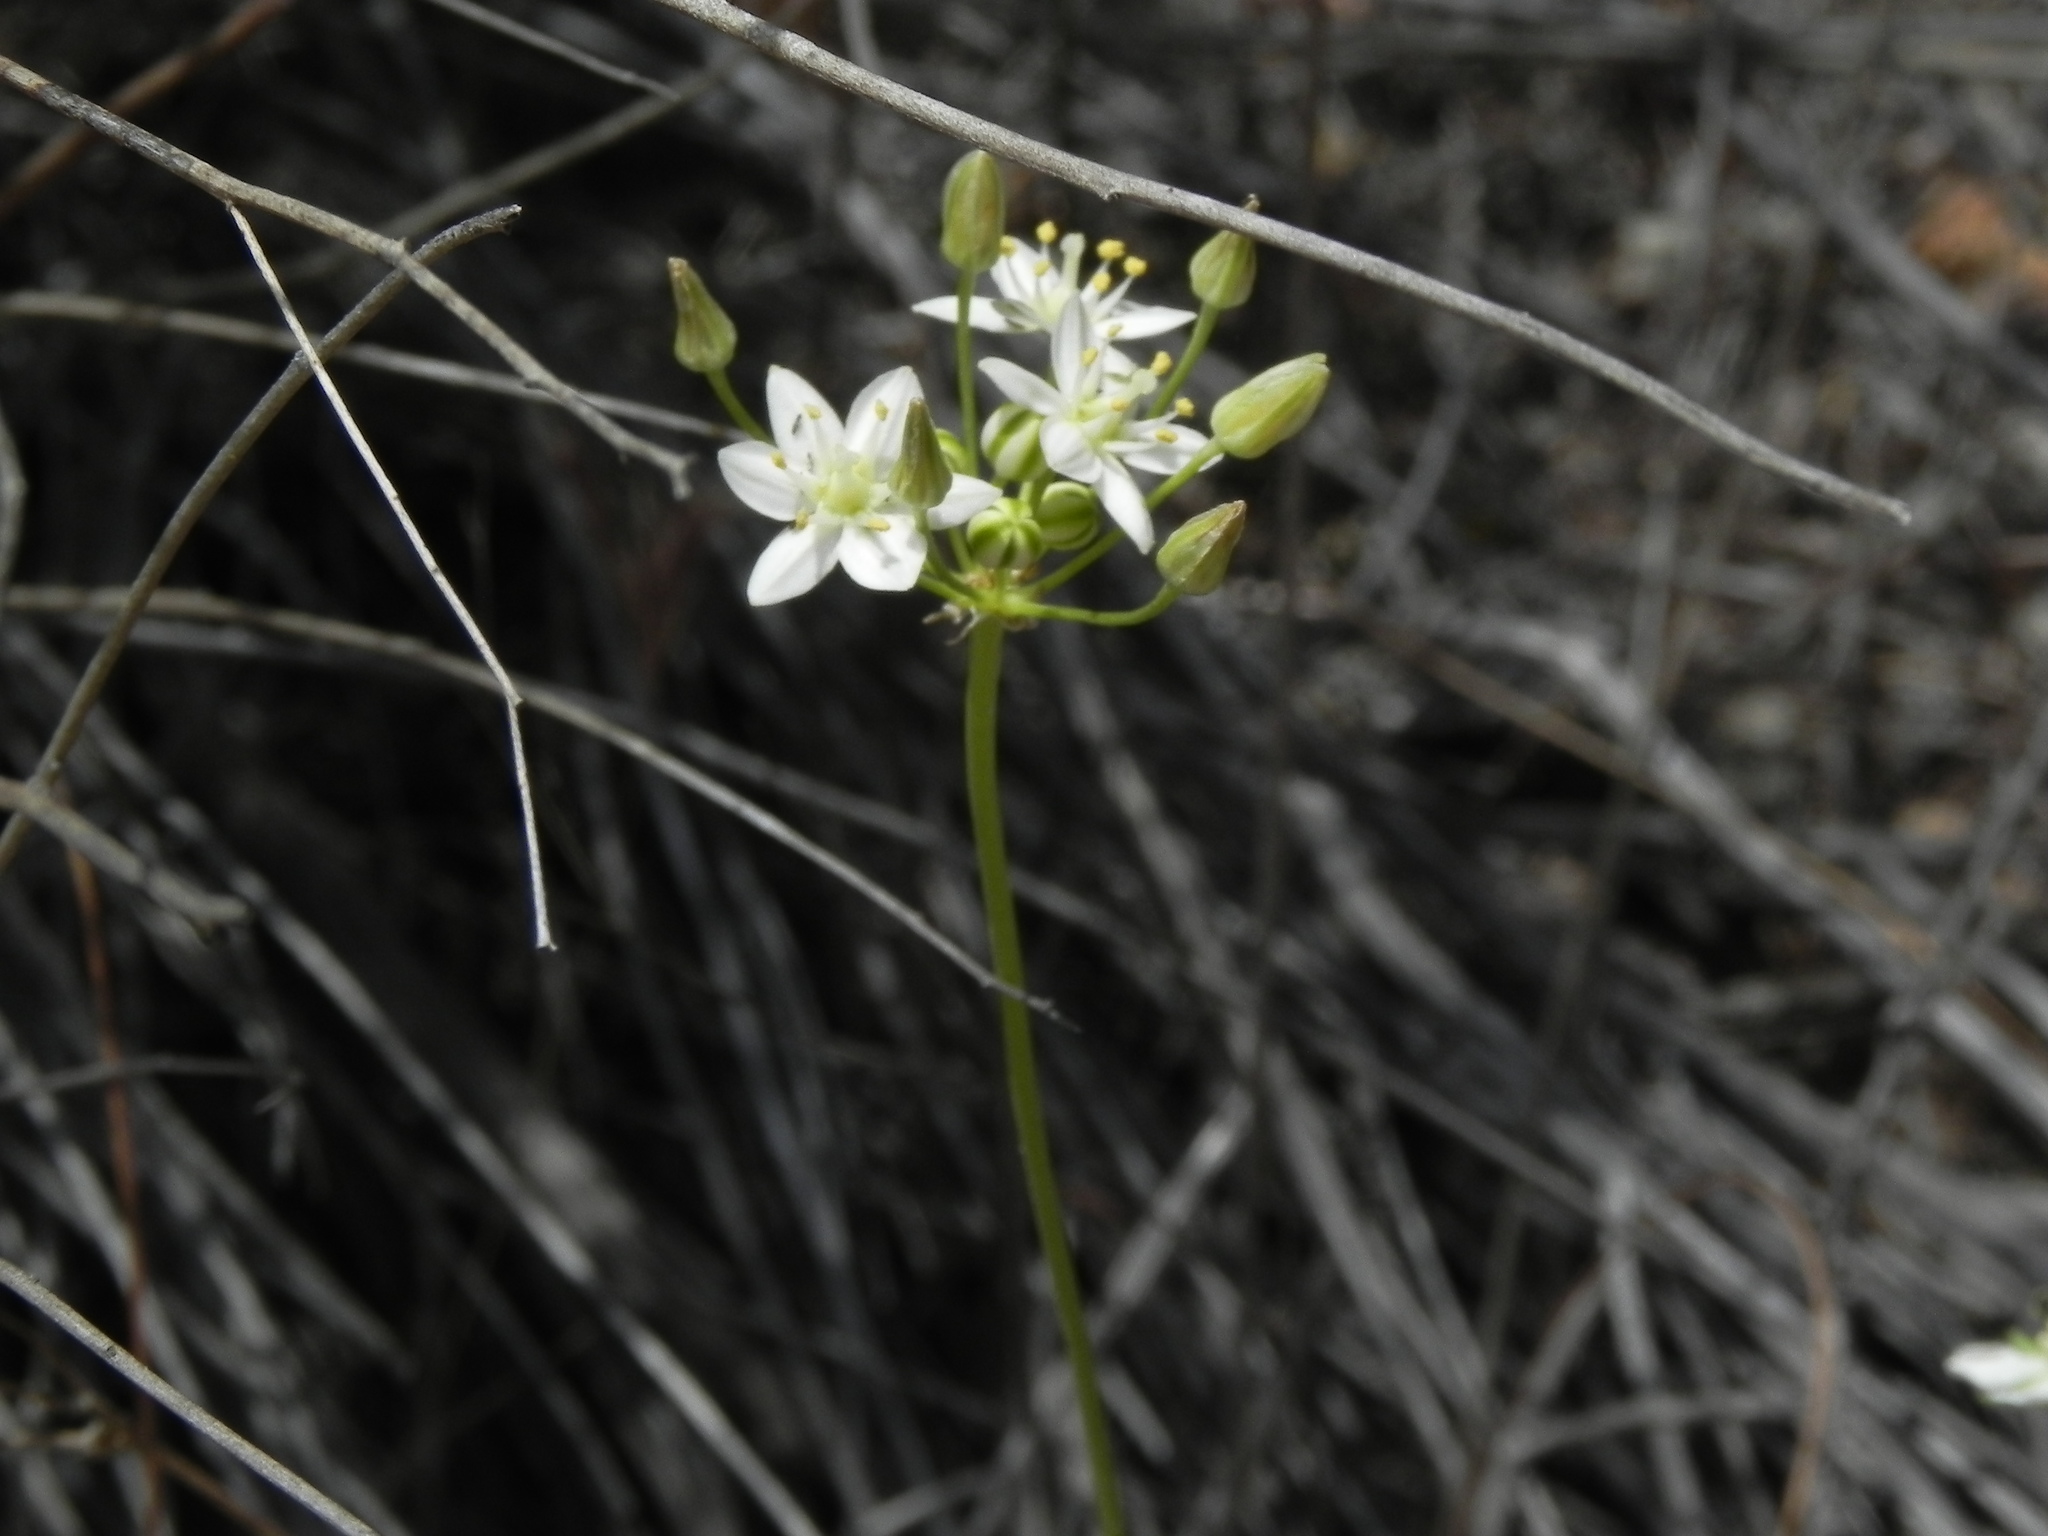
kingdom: Plantae
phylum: Tracheophyta
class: Liliopsida
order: Asparagales
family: Asparagaceae
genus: Muilla
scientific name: Muilla maritima
